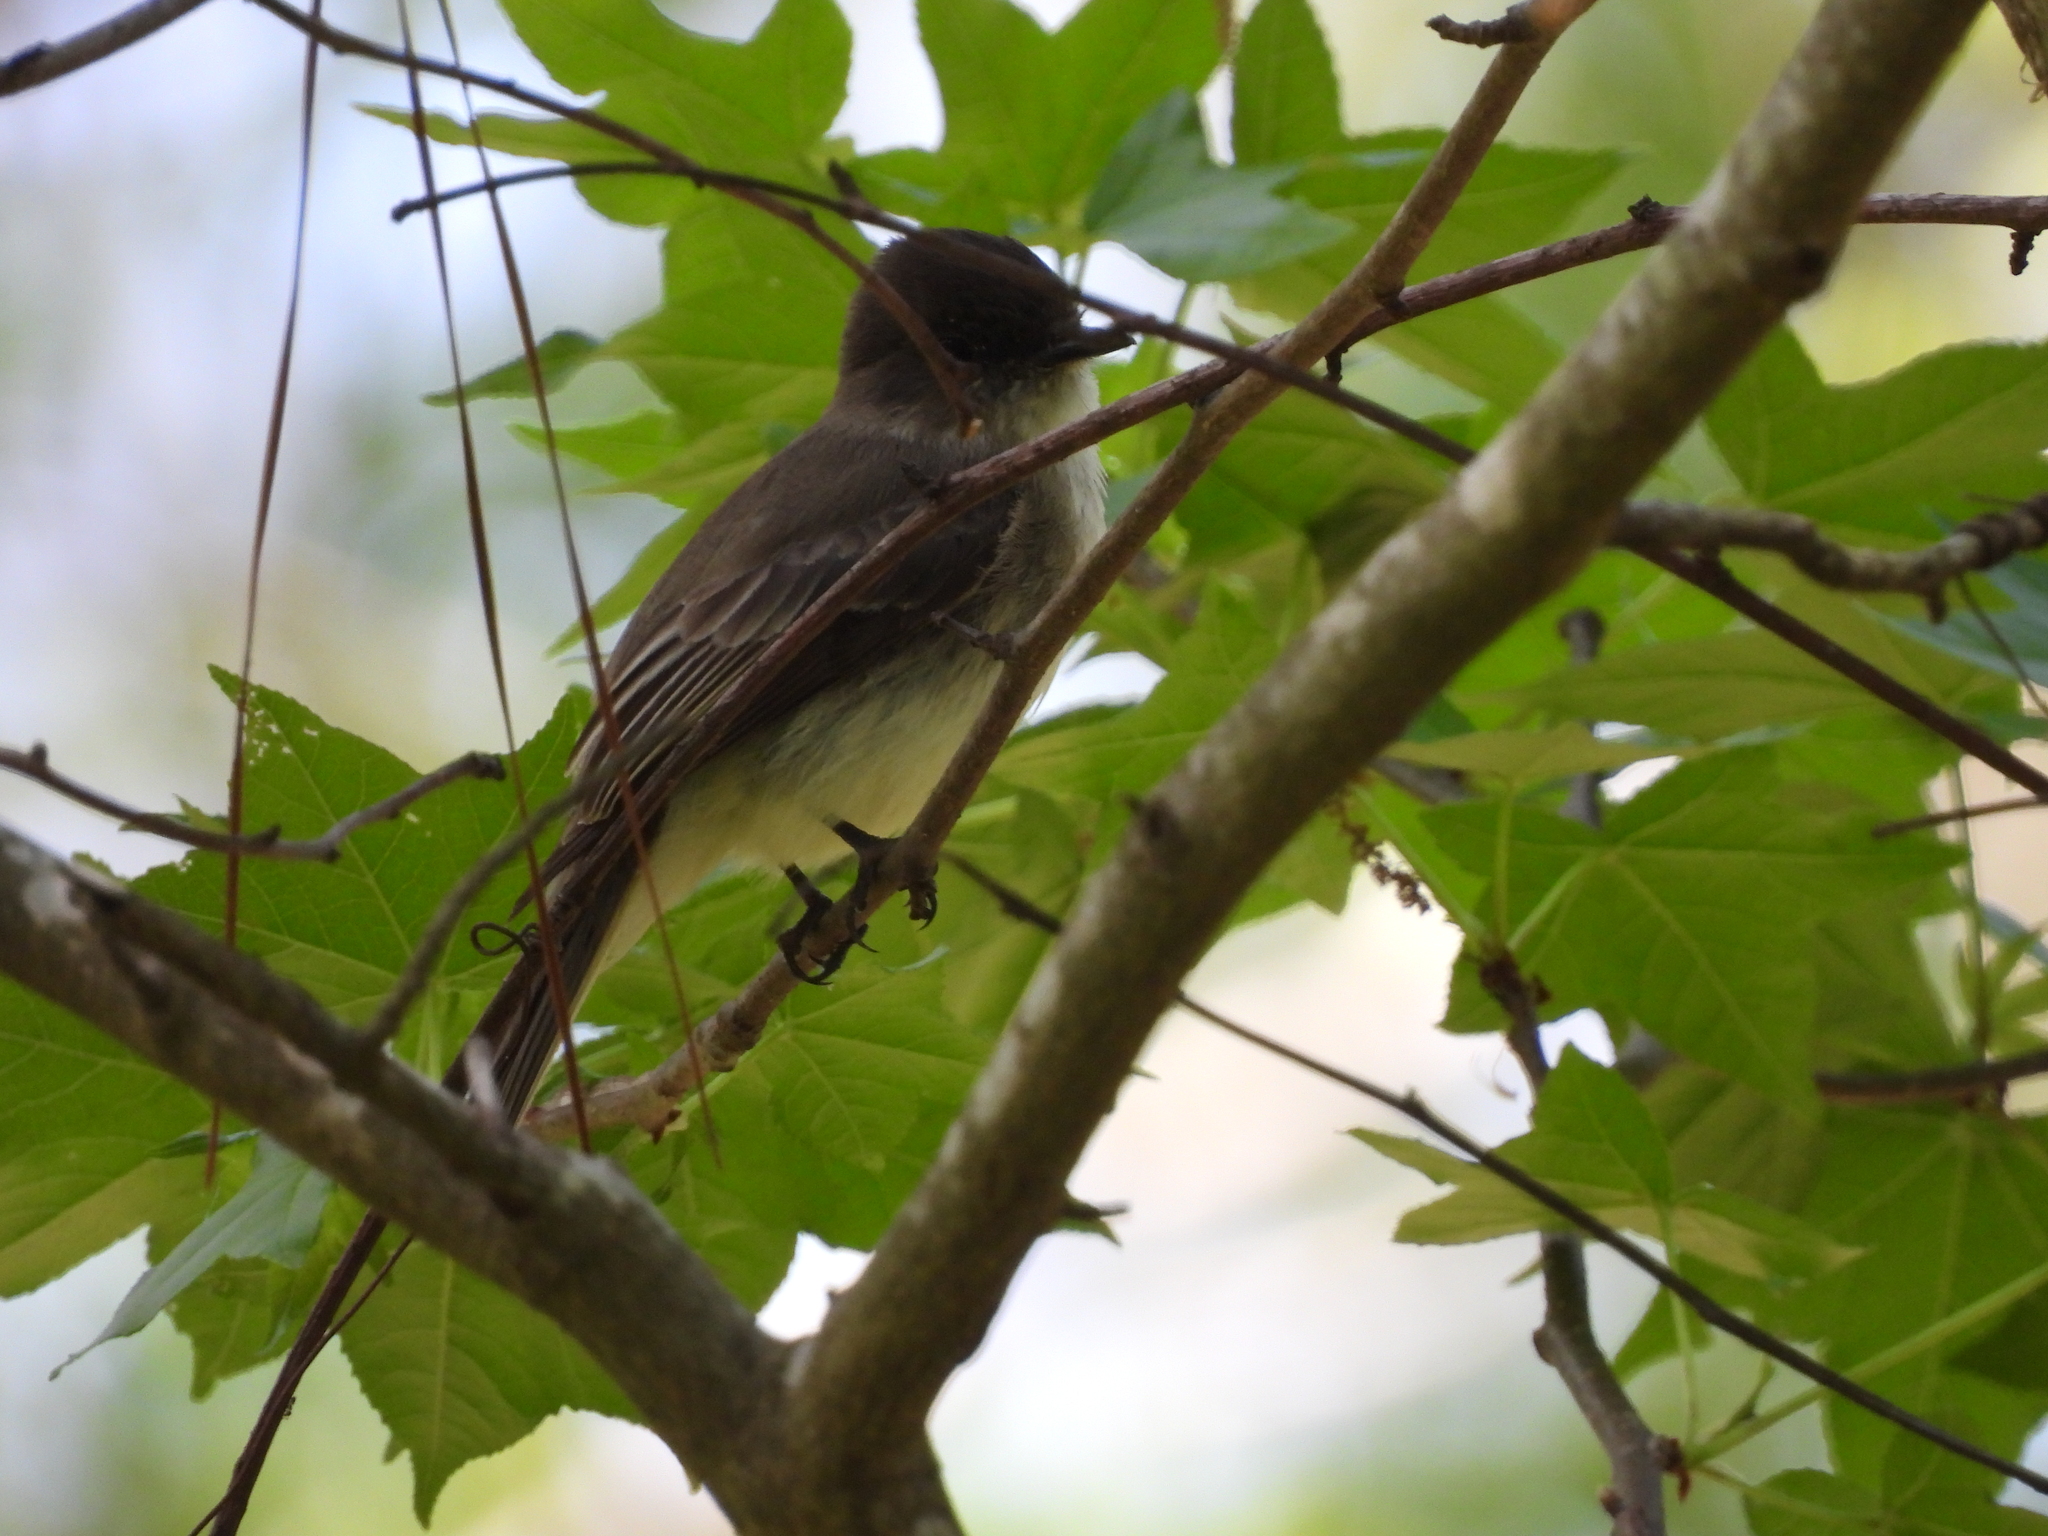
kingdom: Animalia
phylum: Chordata
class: Aves
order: Passeriformes
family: Tyrannidae
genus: Sayornis
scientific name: Sayornis phoebe
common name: Eastern phoebe
